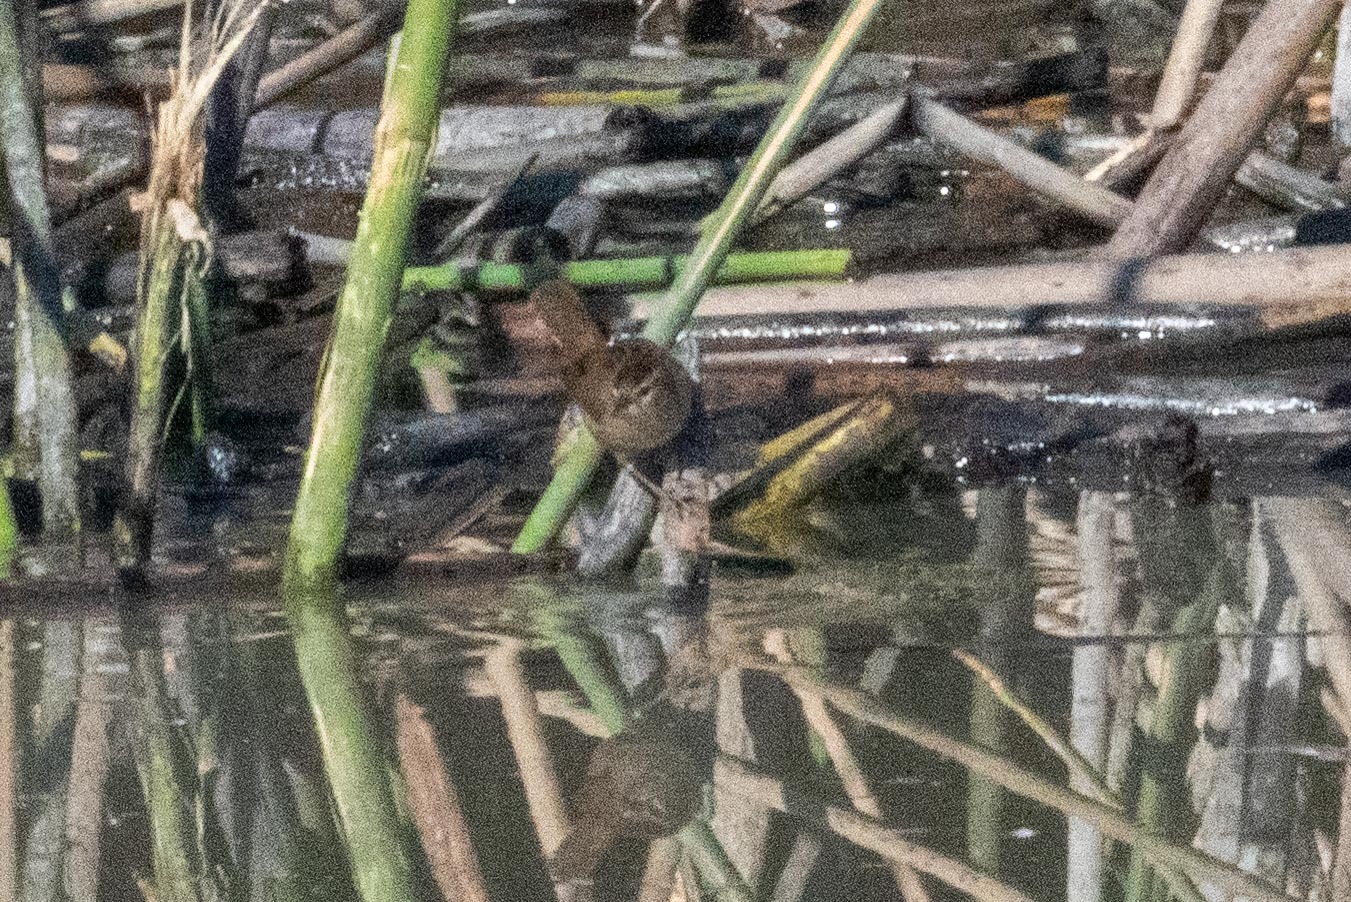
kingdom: Animalia
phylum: Chordata
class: Aves
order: Passeriformes
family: Troglodytidae
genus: Cistothorus
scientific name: Cistothorus palustris
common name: Marsh wren
